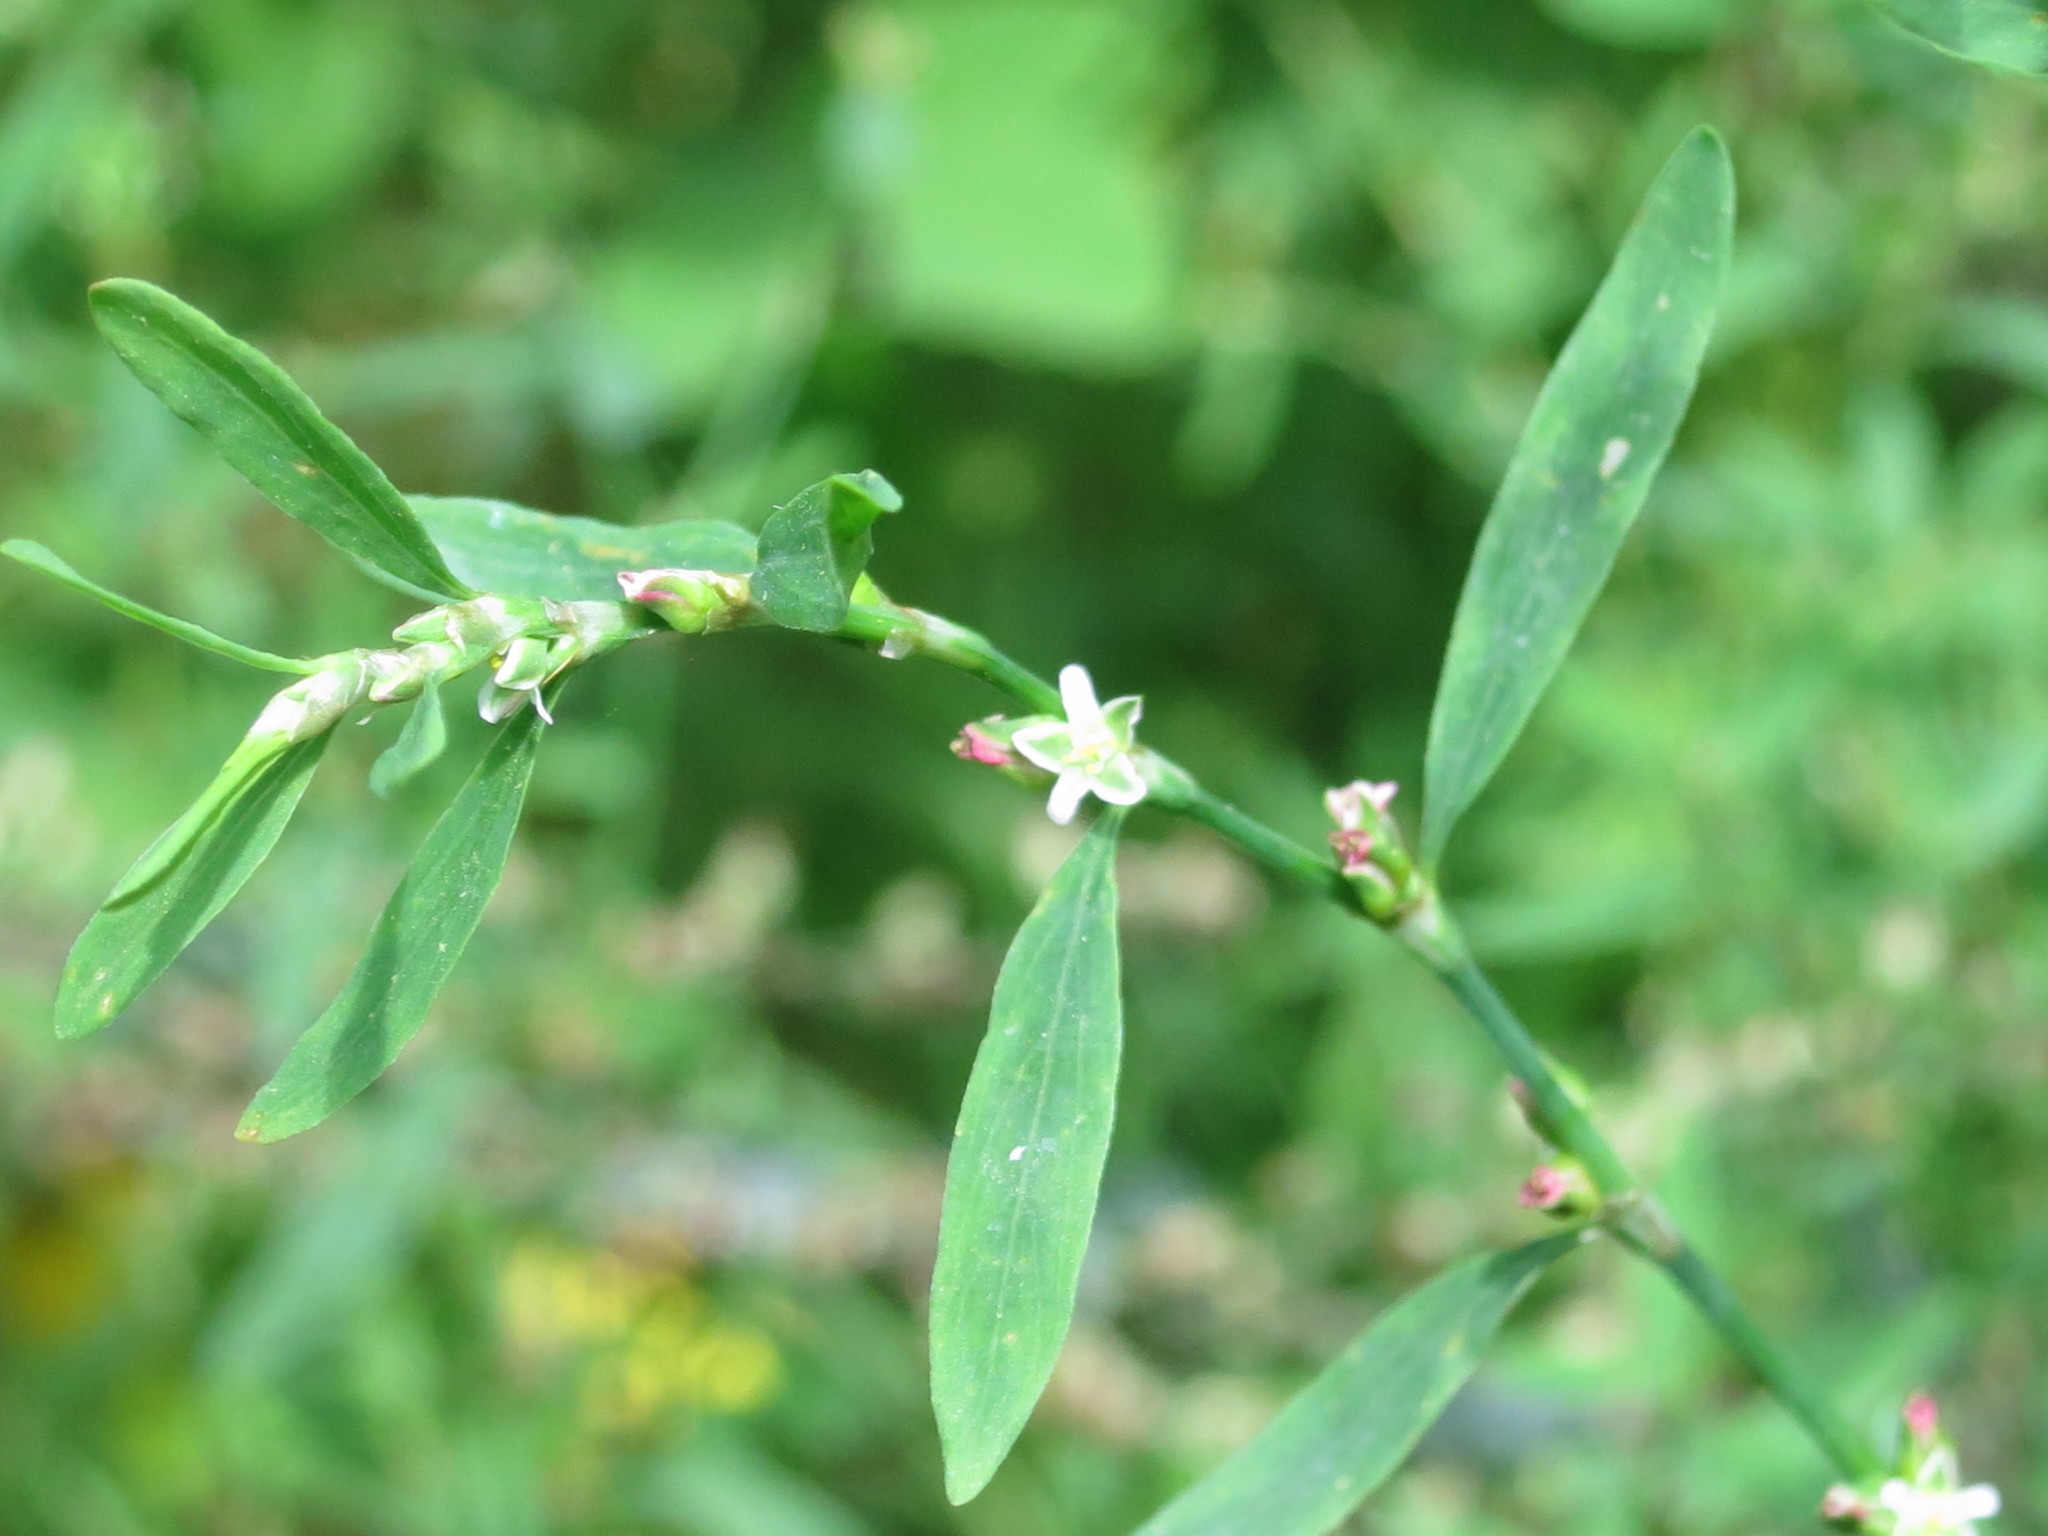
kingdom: Plantae
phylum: Tracheophyta
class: Magnoliopsida
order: Caryophyllales
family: Polygonaceae
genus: Polygonum
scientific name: Polygonum aviculare
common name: Prostrate knotweed
